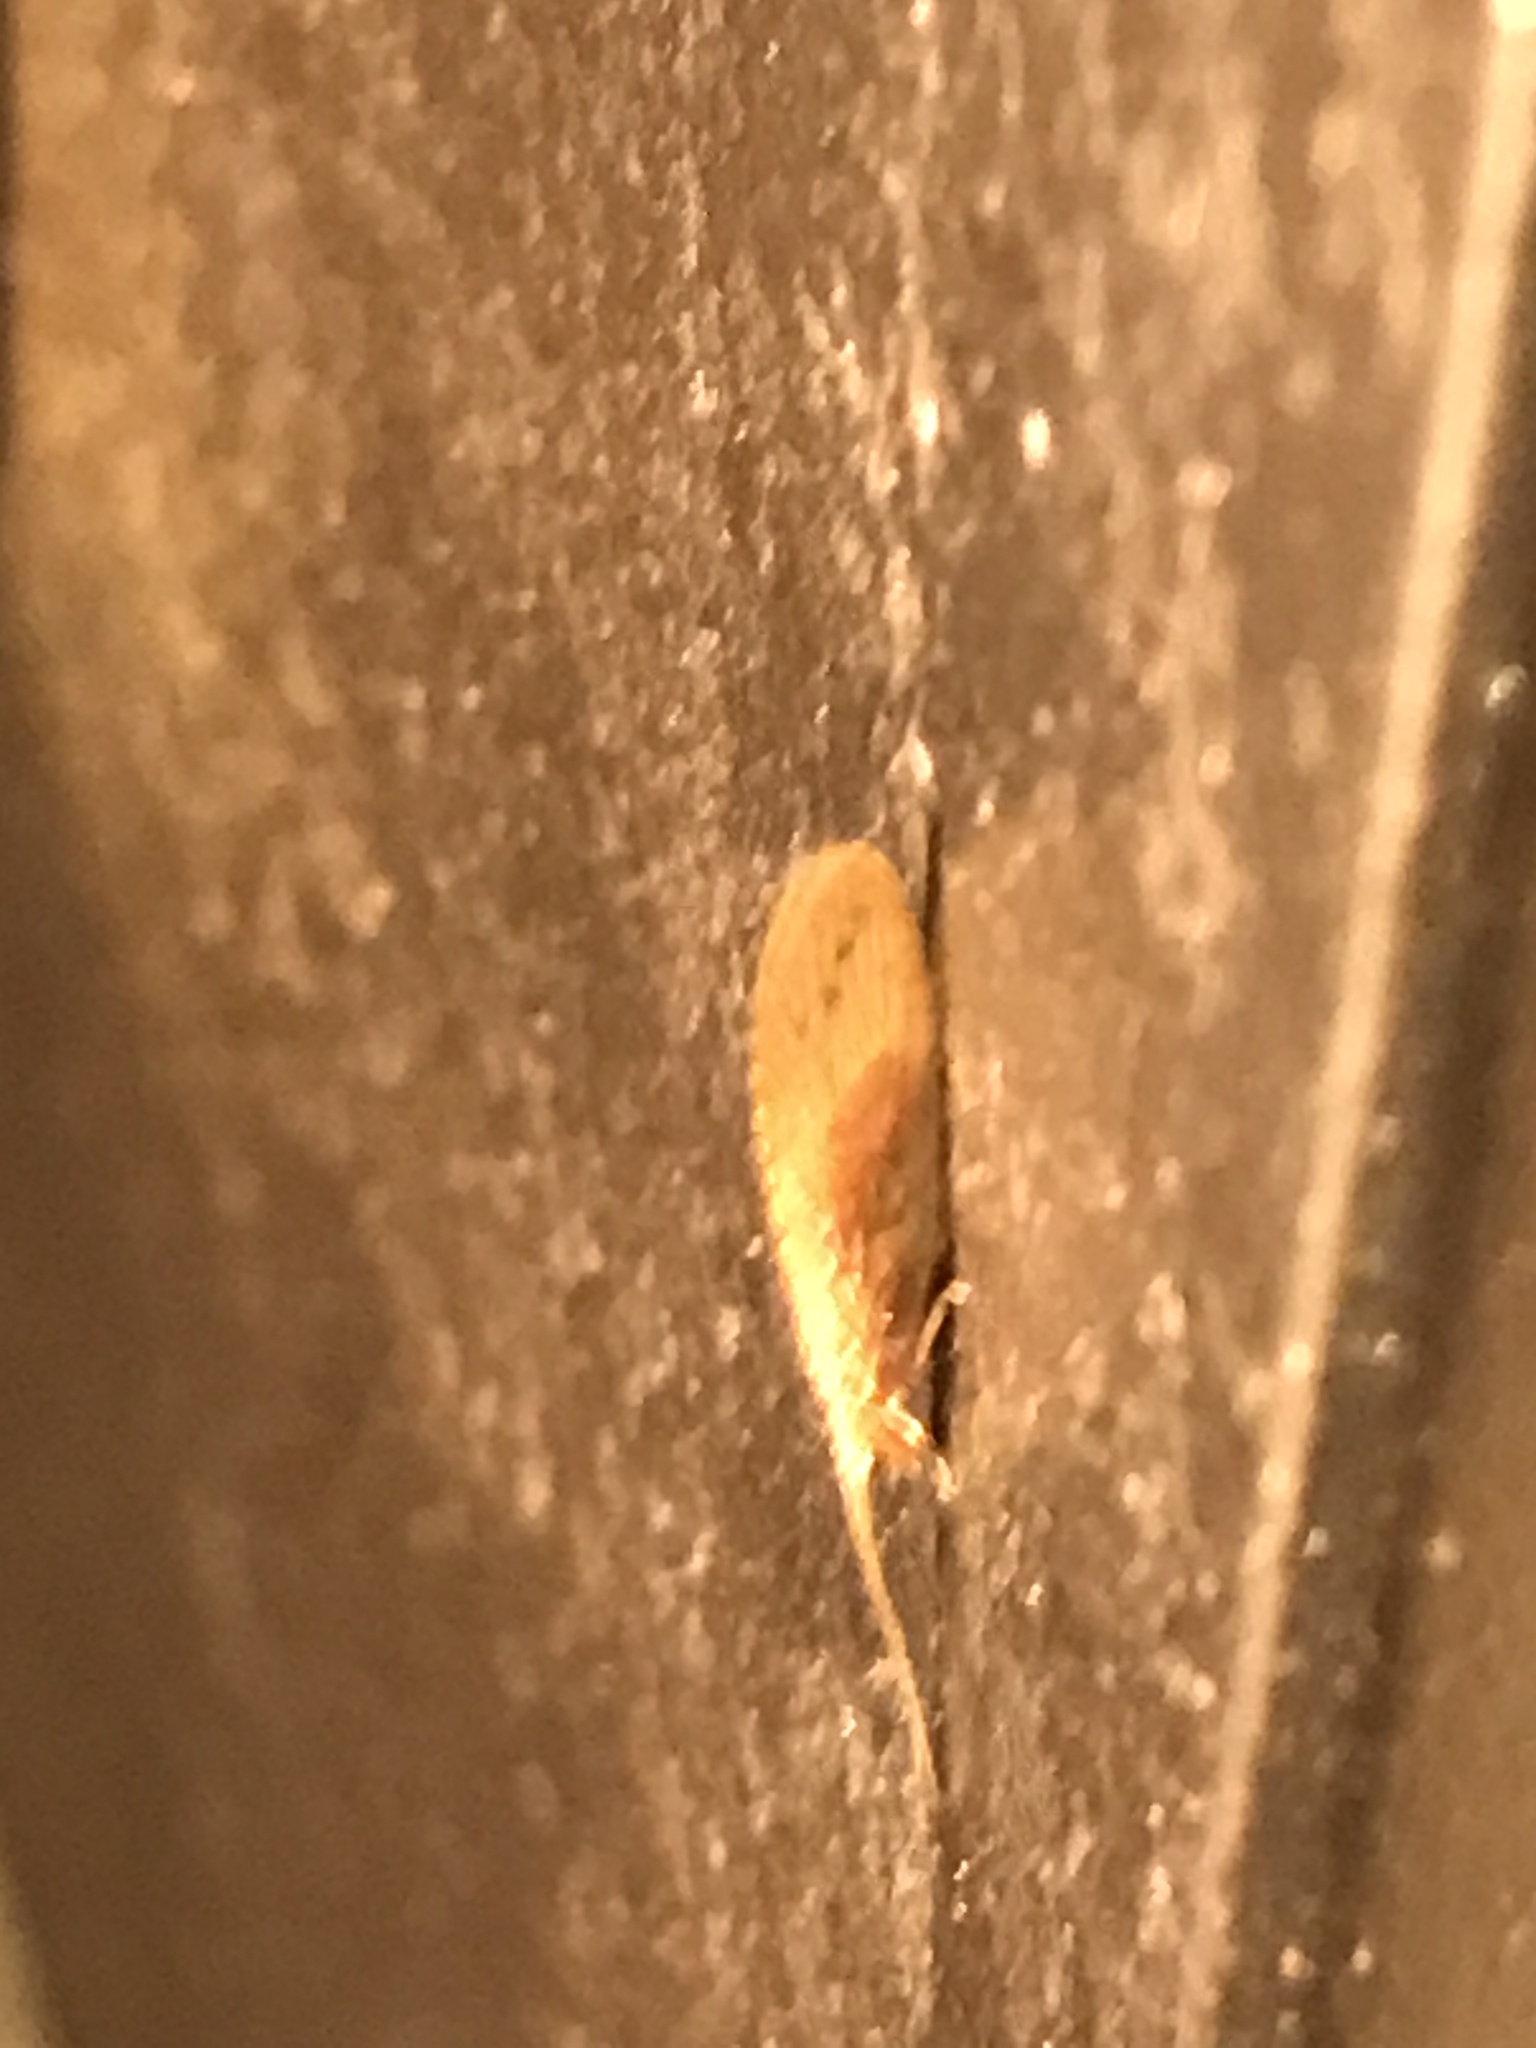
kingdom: Animalia
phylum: Arthropoda
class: Insecta
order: Neuroptera
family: Hemerobiidae
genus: Micromus
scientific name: Micromus subanticus
